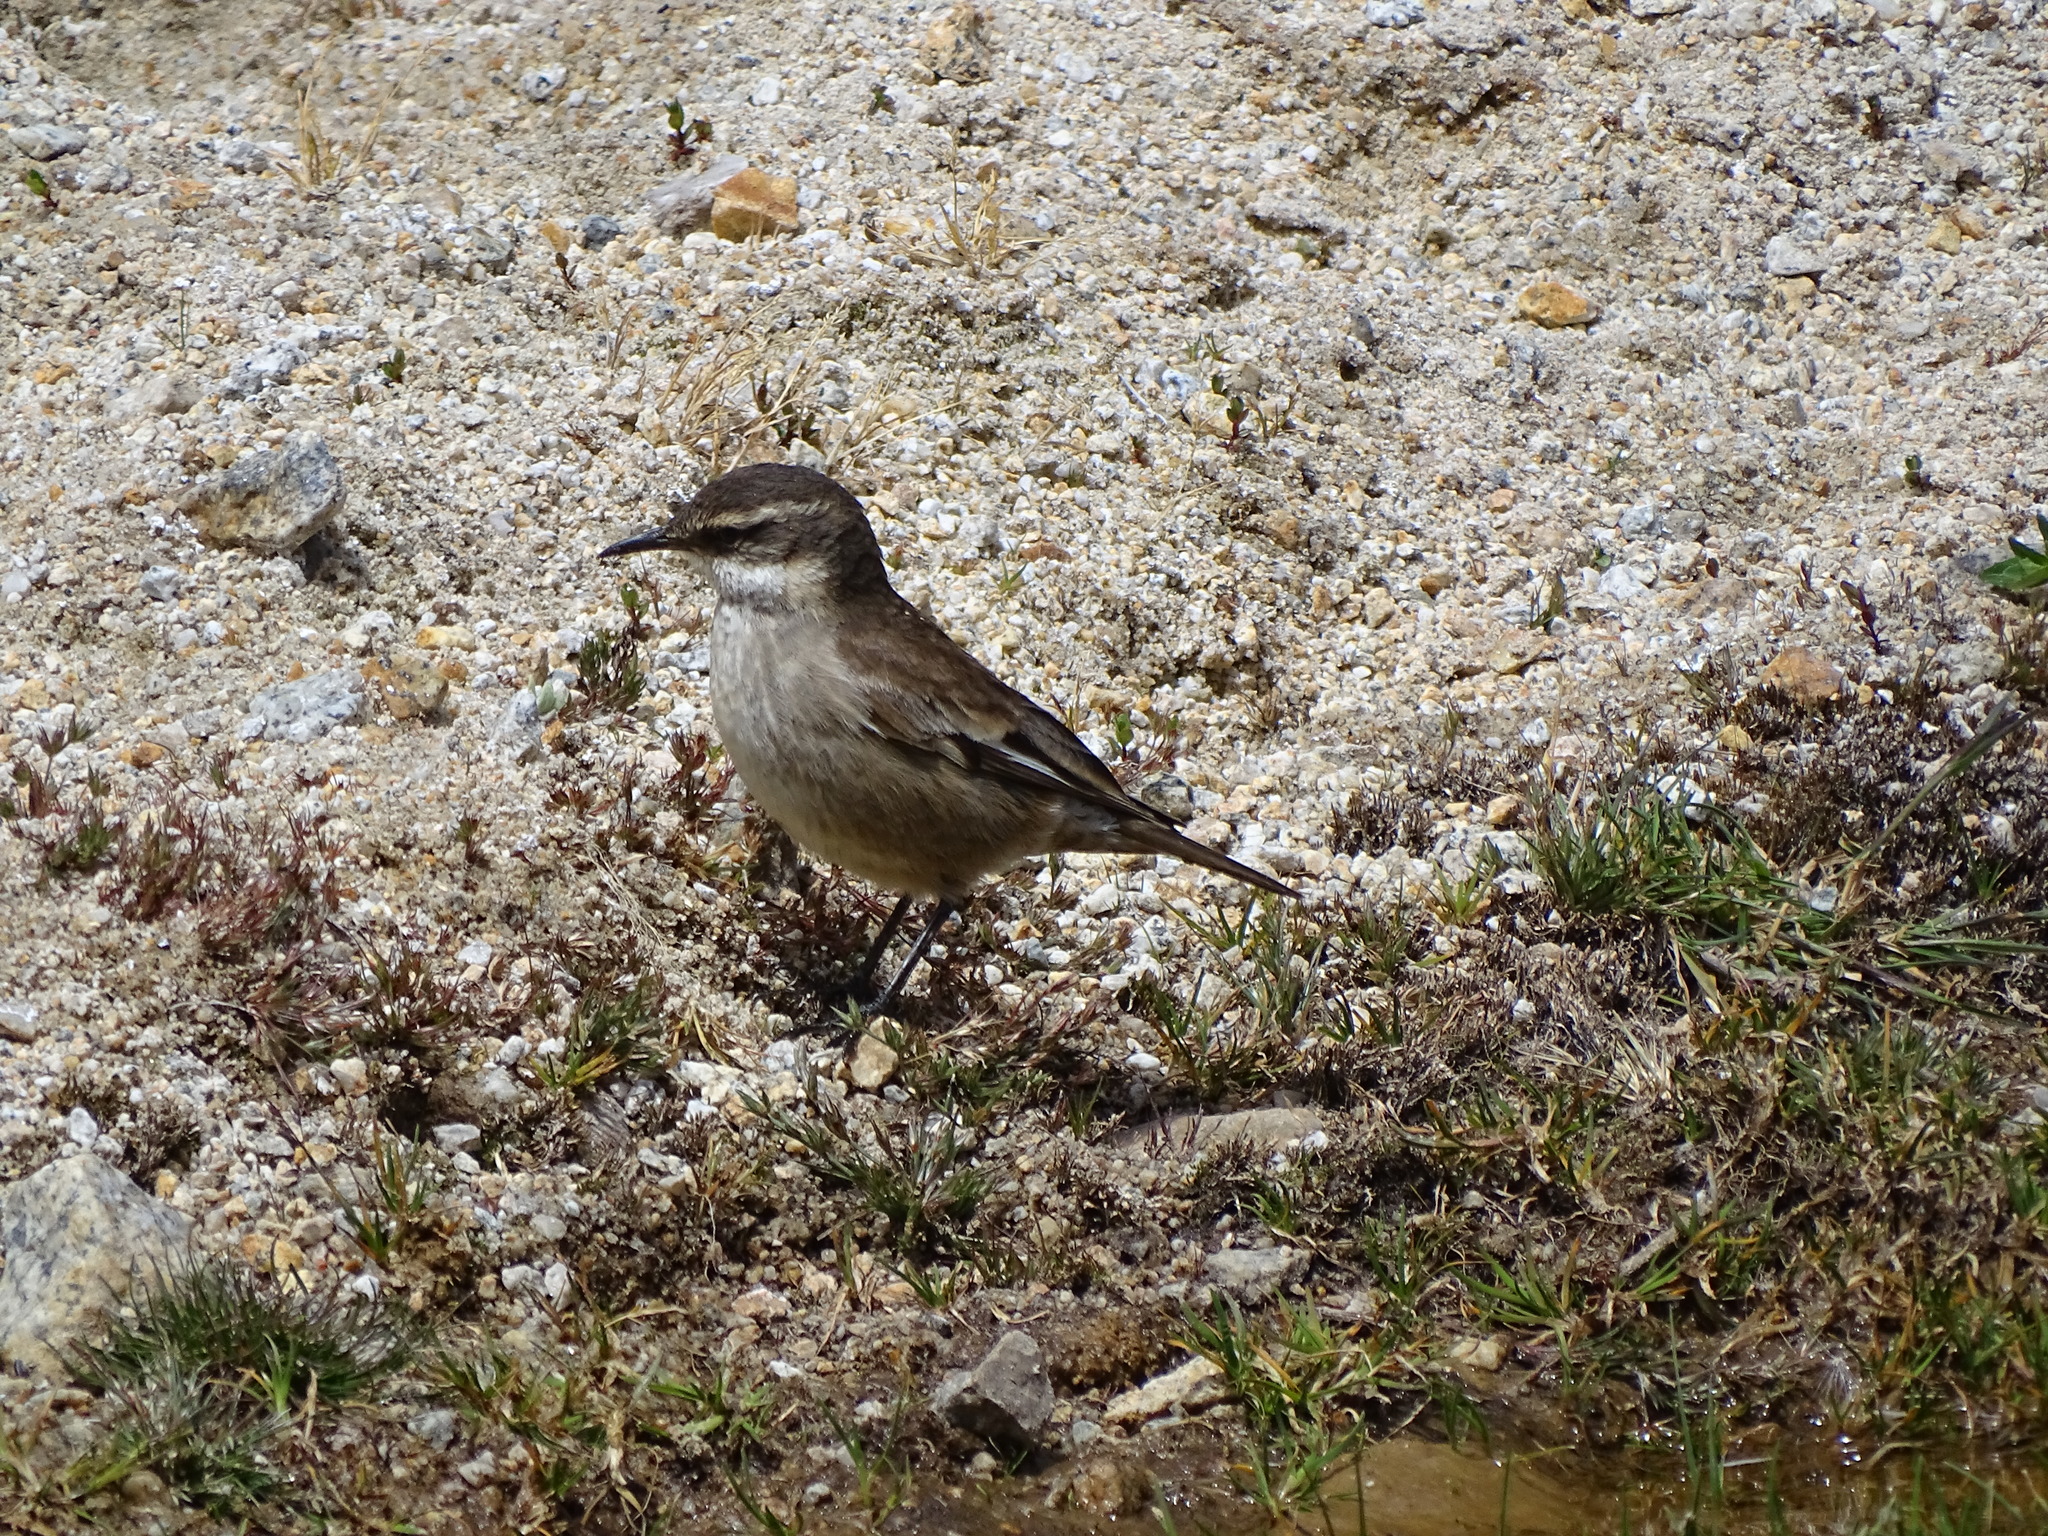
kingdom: Animalia
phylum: Chordata
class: Aves
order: Passeriformes
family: Furnariidae
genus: Cinclodes
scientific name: Cinclodes fuscus
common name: Buff-winged cinclodes
